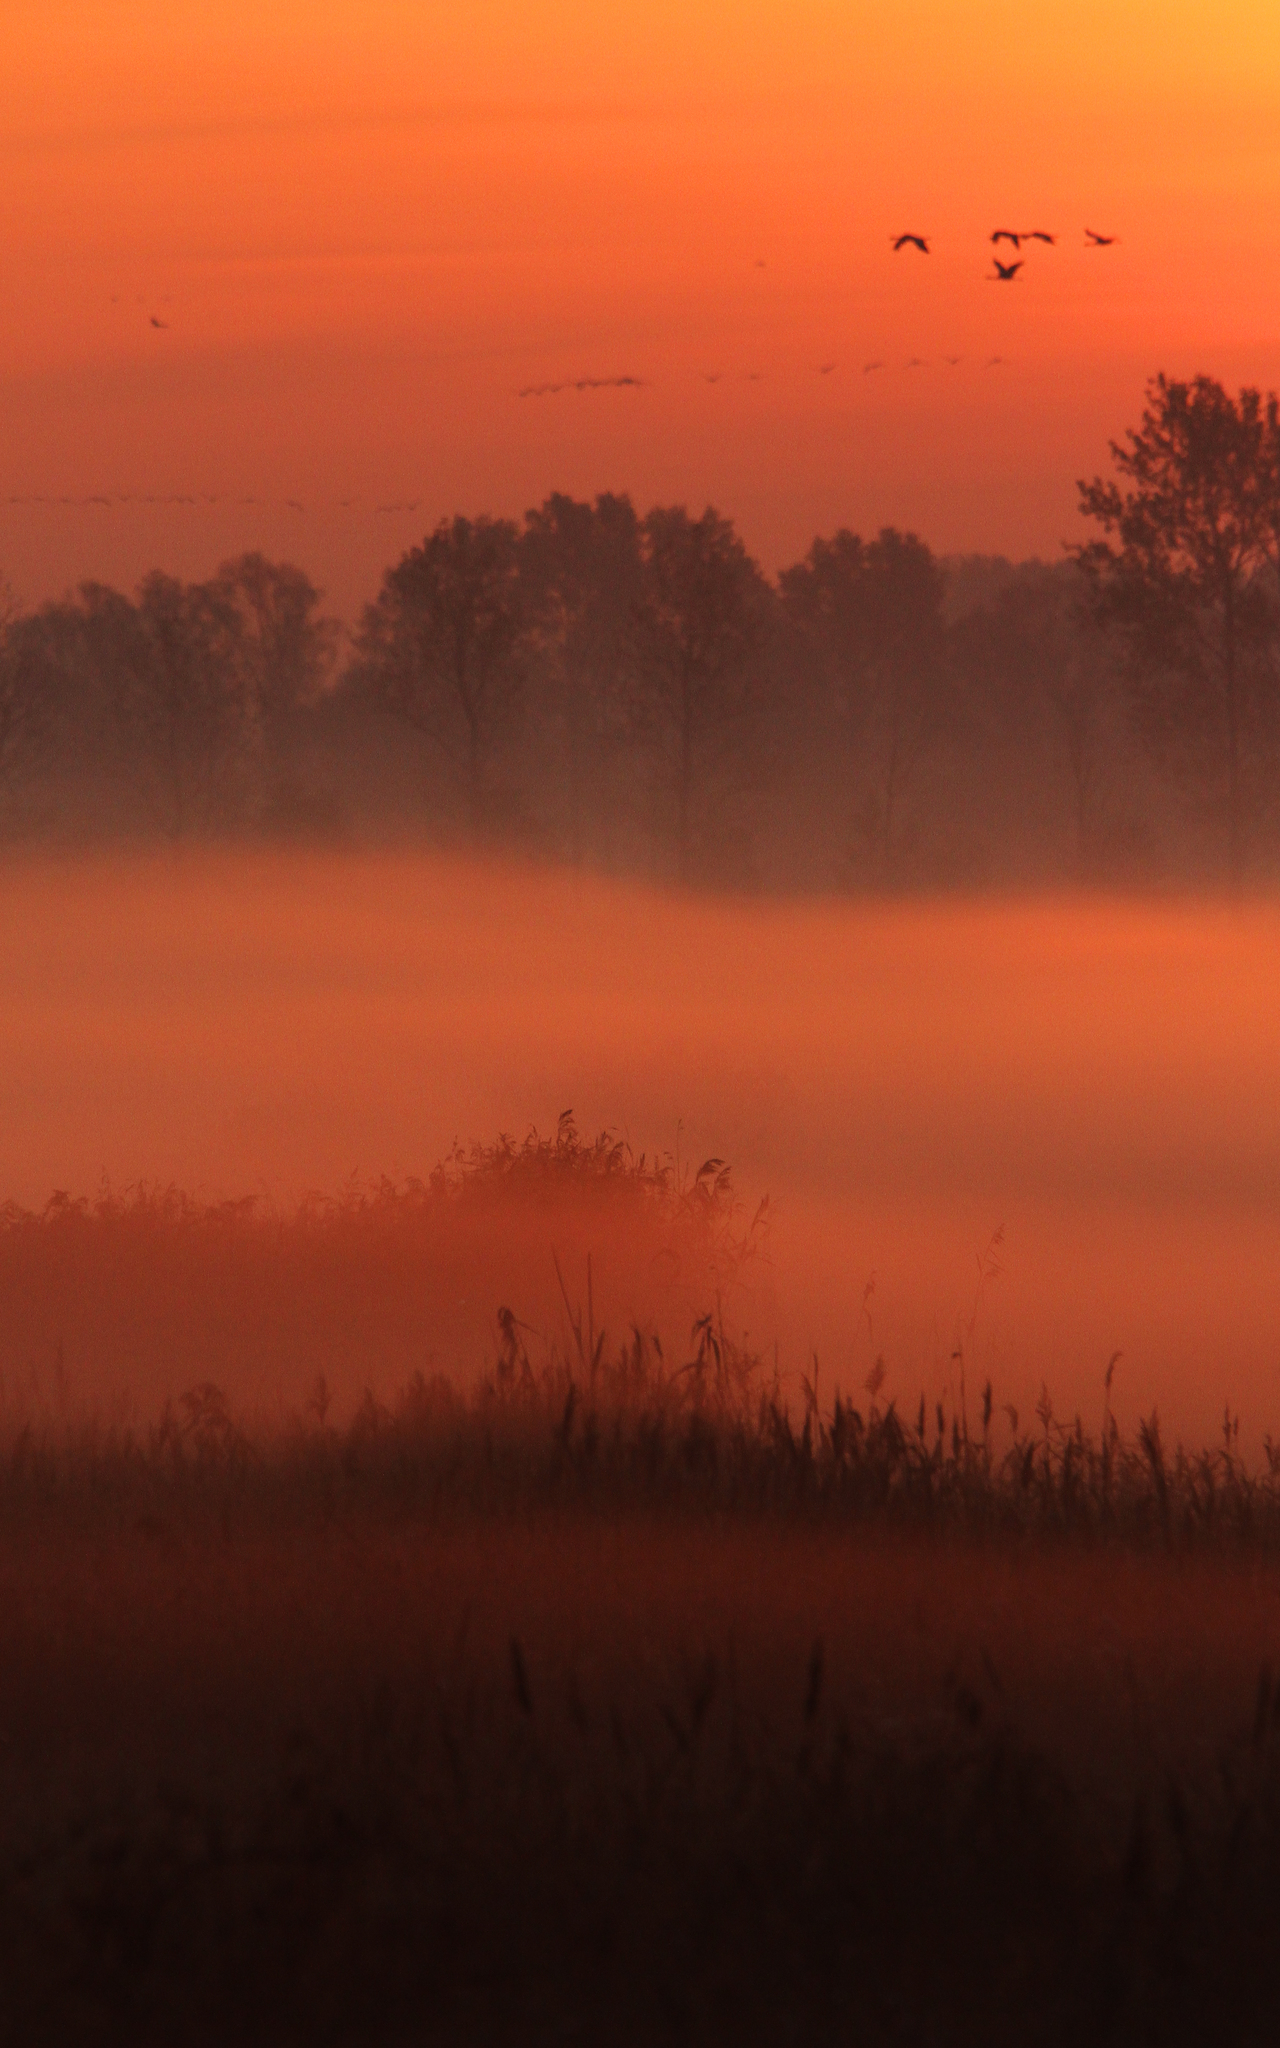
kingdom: Animalia
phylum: Chordata
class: Aves
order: Gruiformes
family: Gruidae
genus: Grus
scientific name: Grus grus
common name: Common crane
